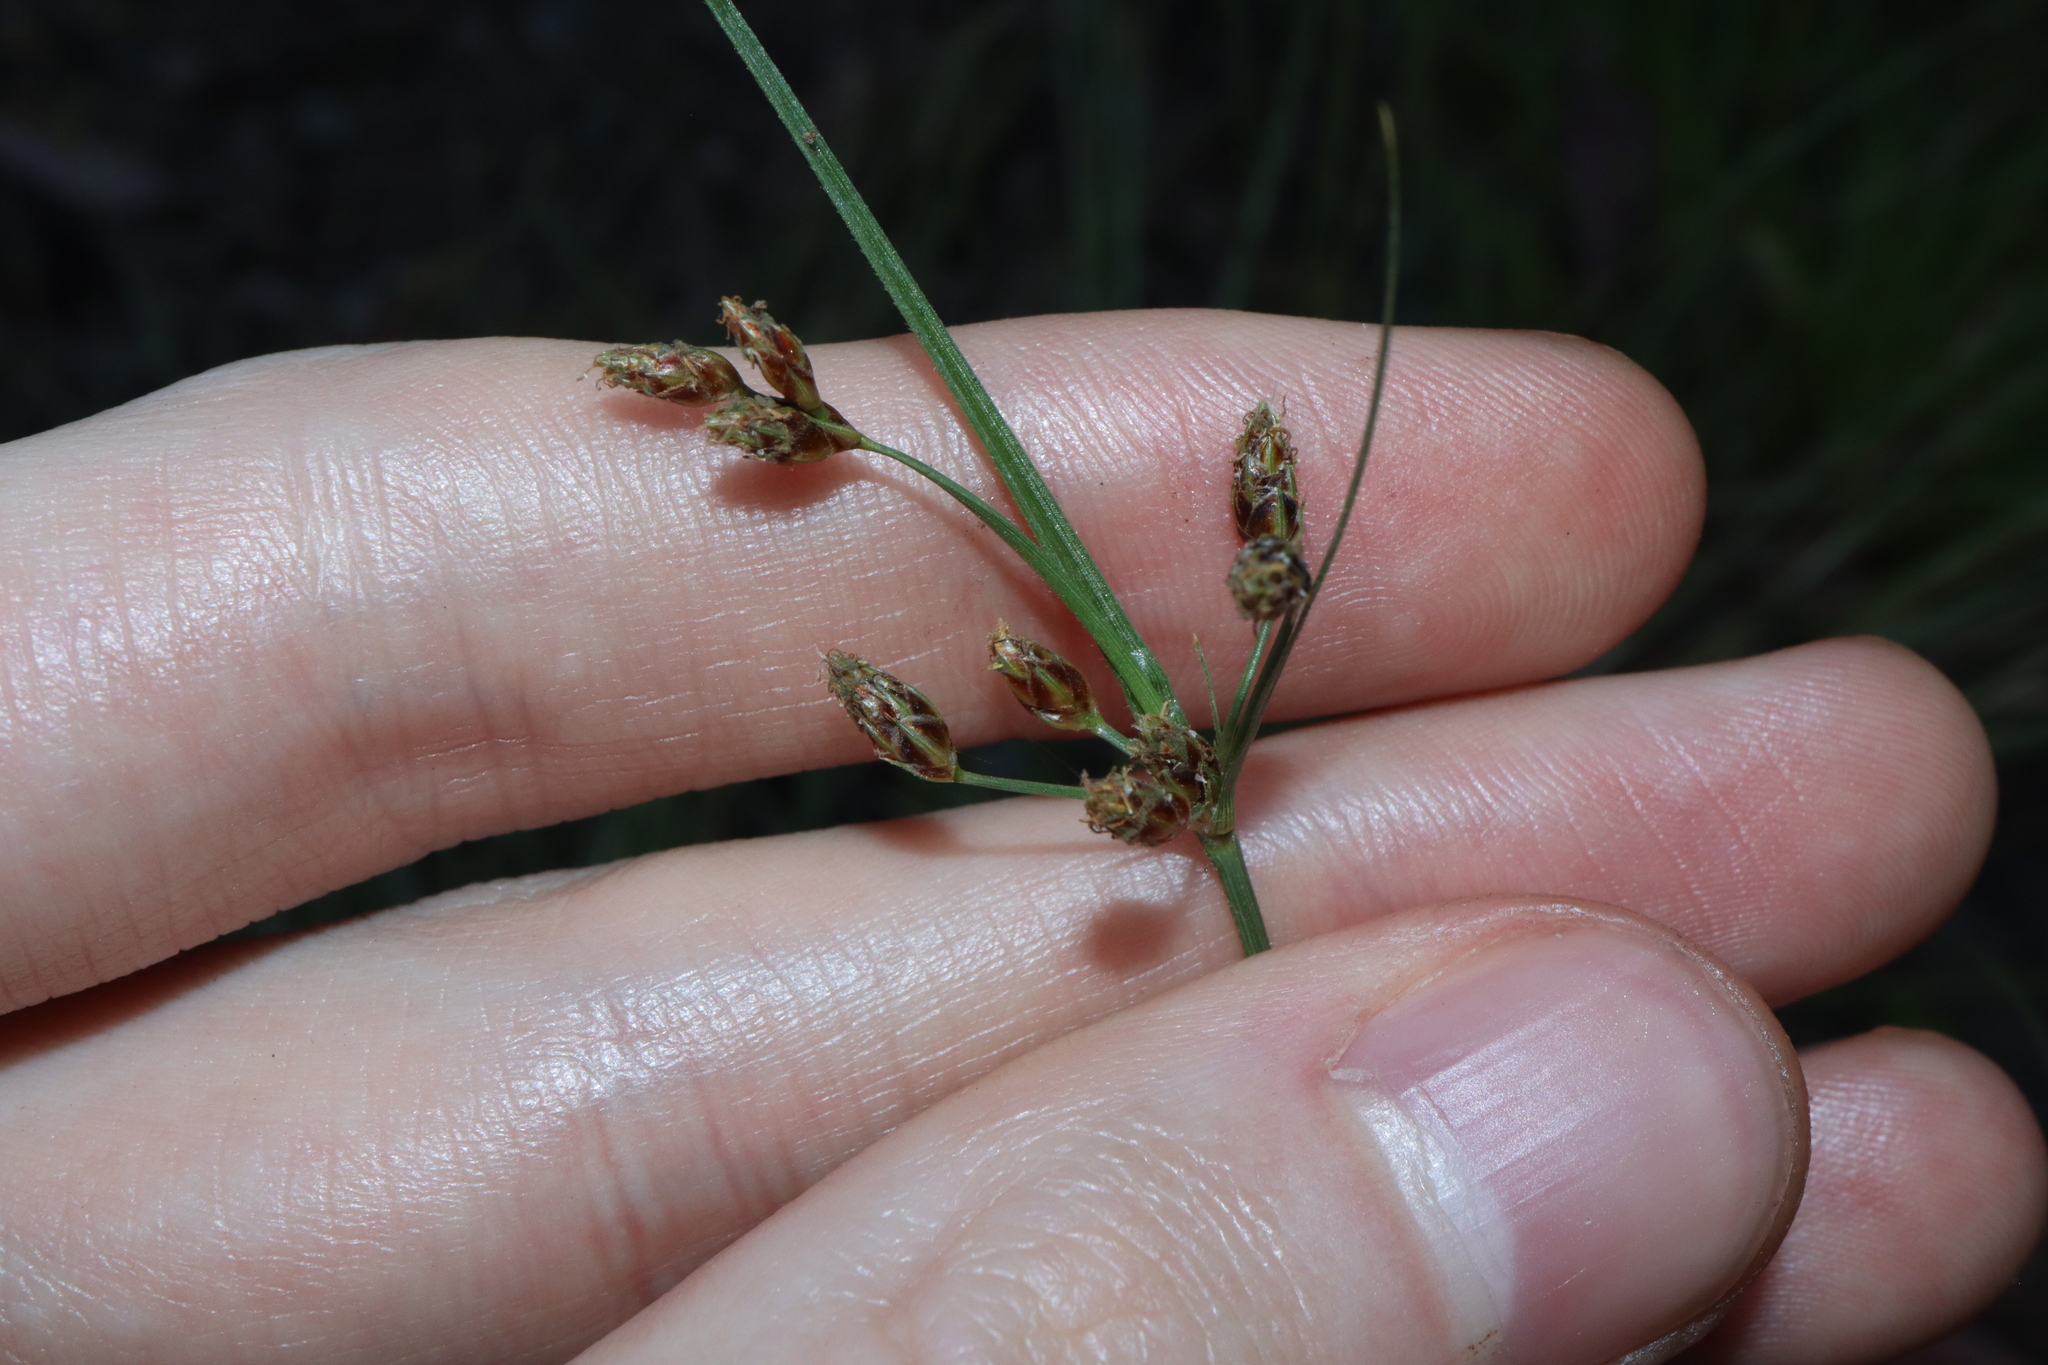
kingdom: Plantae
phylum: Tracheophyta
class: Liliopsida
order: Poales
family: Cyperaceae
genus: Fimbristylis
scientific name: Fimbristylis dichotoma
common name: Forked fimbry
